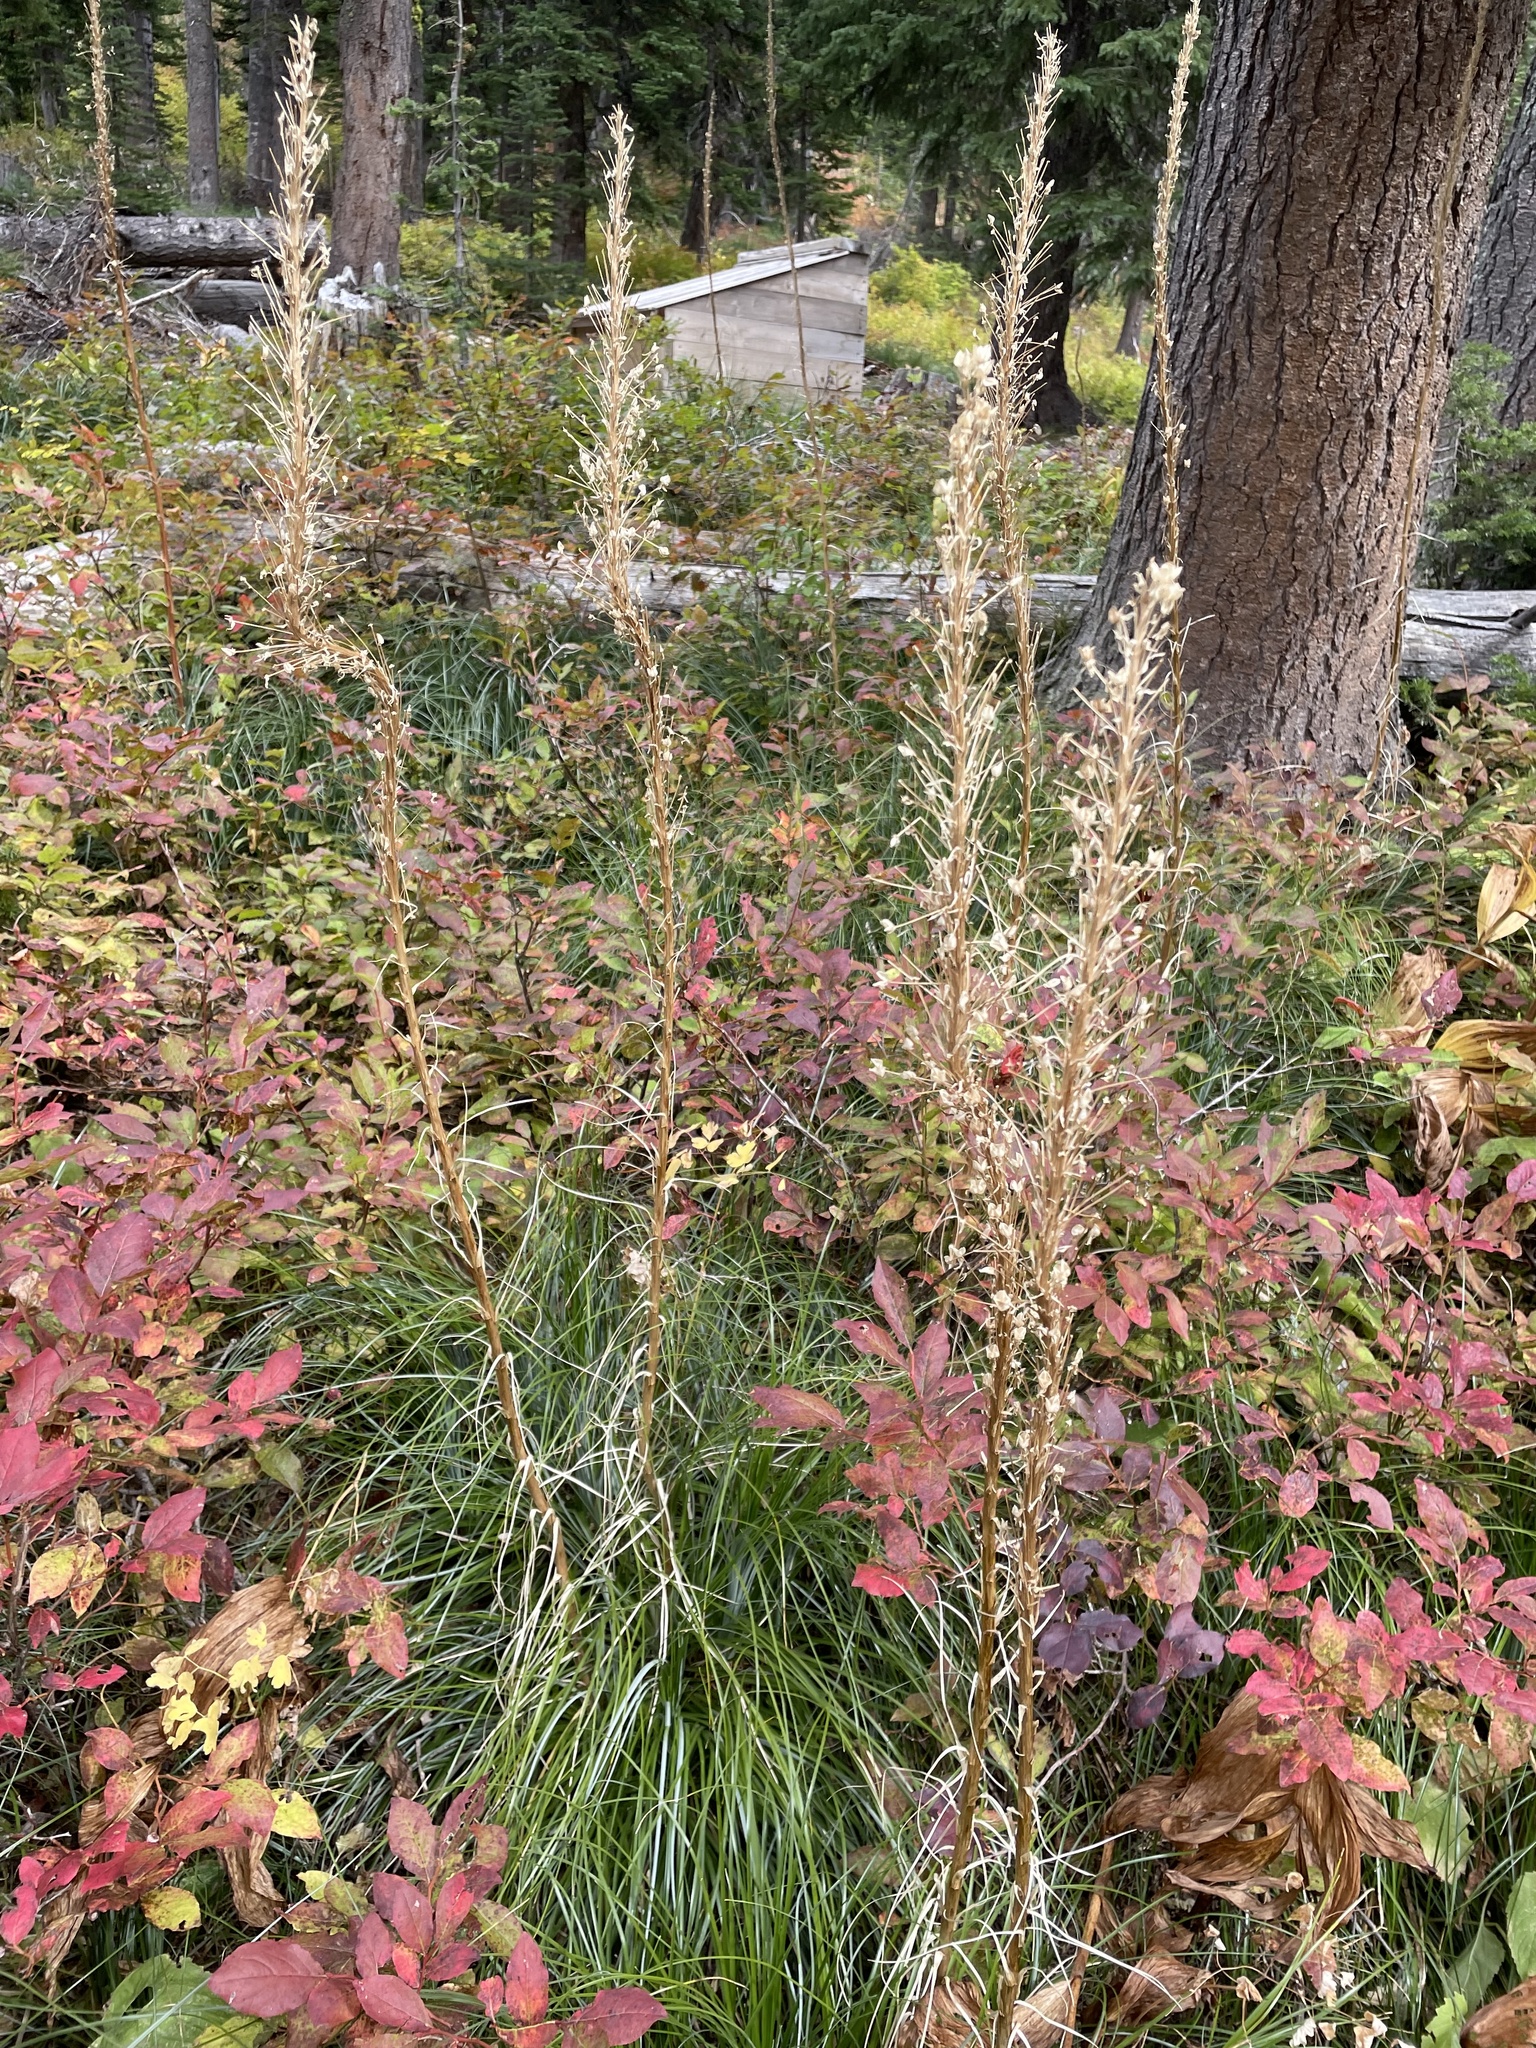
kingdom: Plantae
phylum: Tracheophyta
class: Liliopsida
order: Liliales
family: Melanthiaceae
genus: Xerophyllum
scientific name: Xerophyllum tenax
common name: Bear-grass
